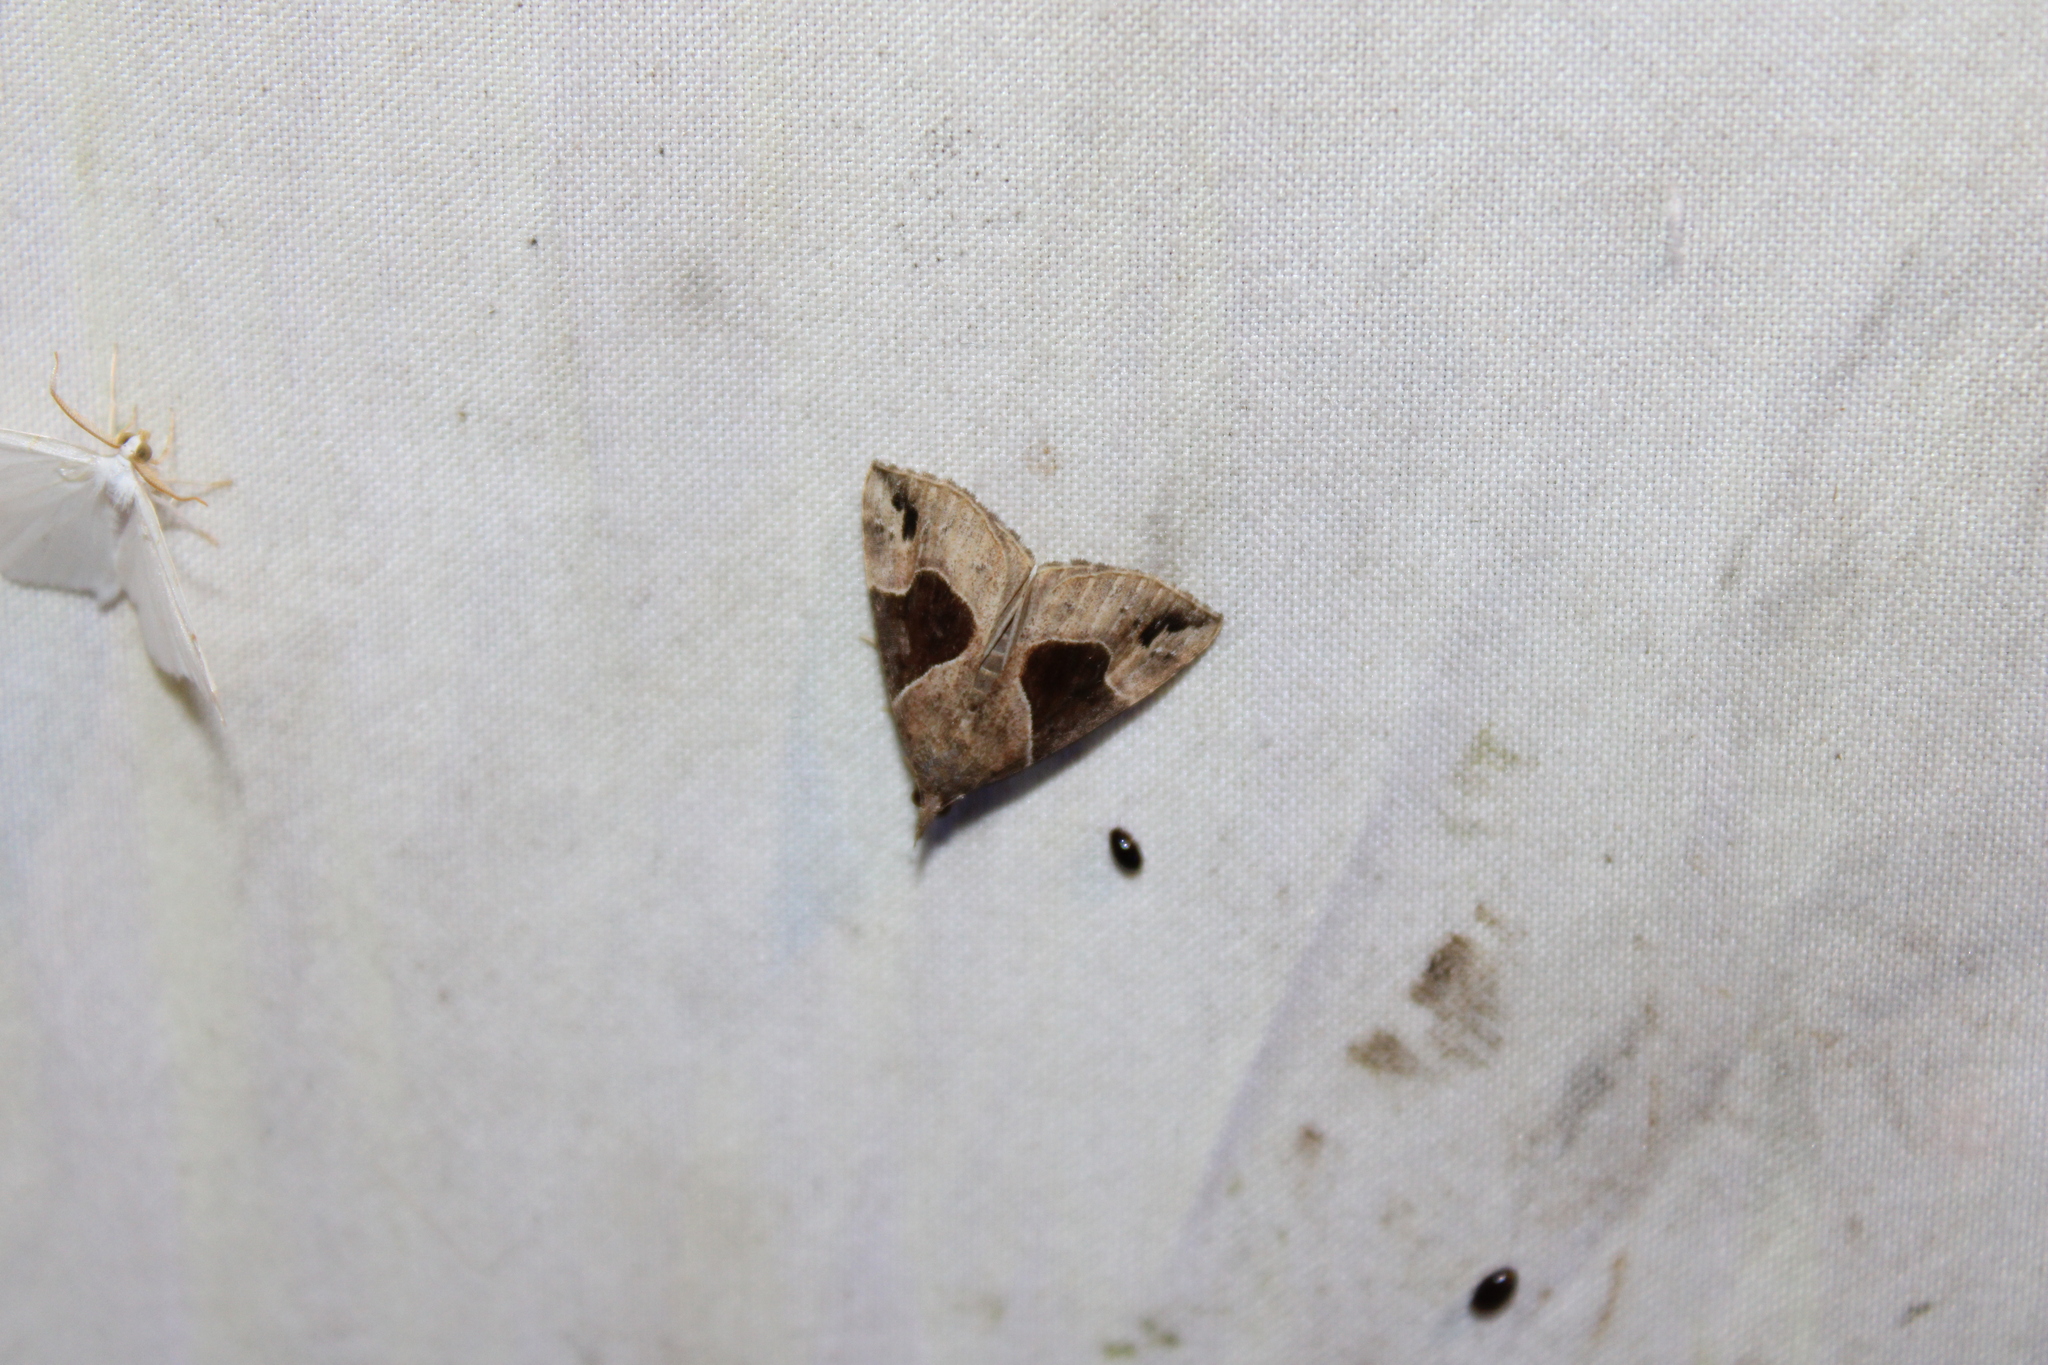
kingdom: Animalia
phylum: Arthropoda
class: Insecta
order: Lepidoptera
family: Erebidae
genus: Hypena
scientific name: Hypena manalis
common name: Flowing-line bomolocha moth
